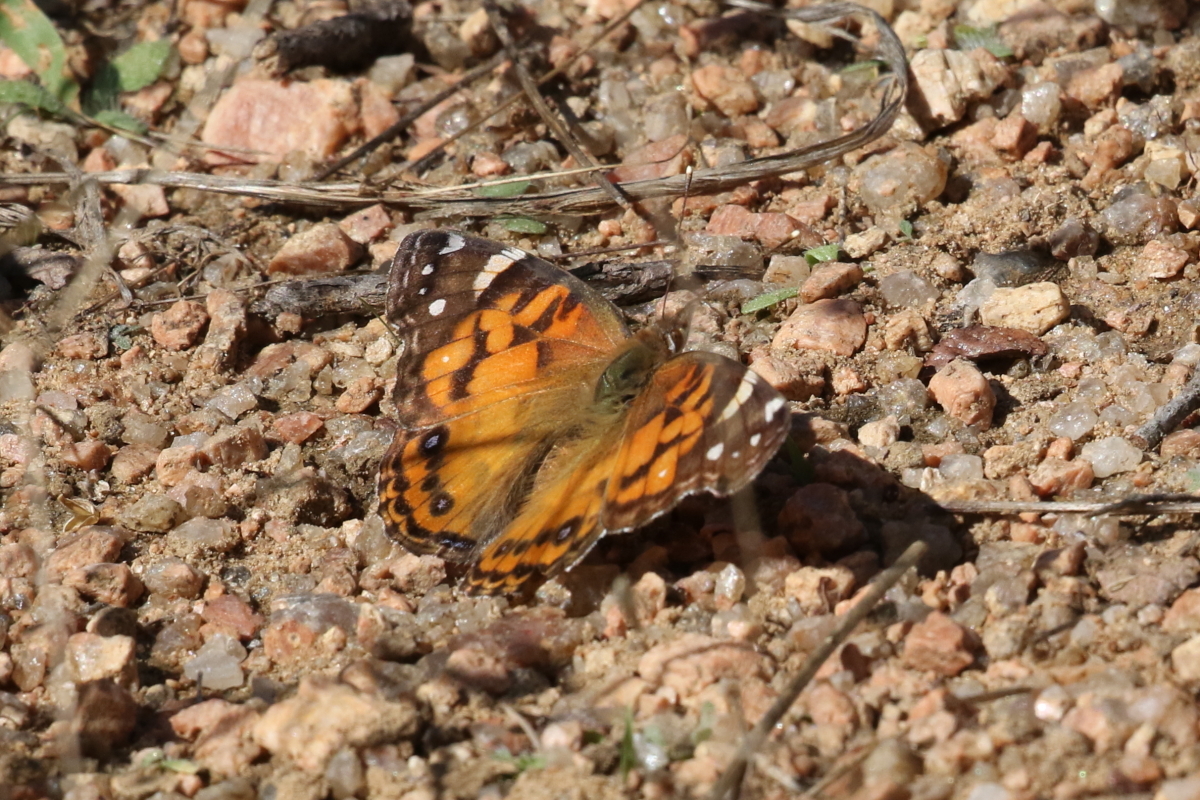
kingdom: Animalia
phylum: Arthropoda
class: Insecta
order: Lepidoptera
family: Nymphalidae
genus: Vanessa
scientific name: Vanessa virginiensis
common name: American lady
